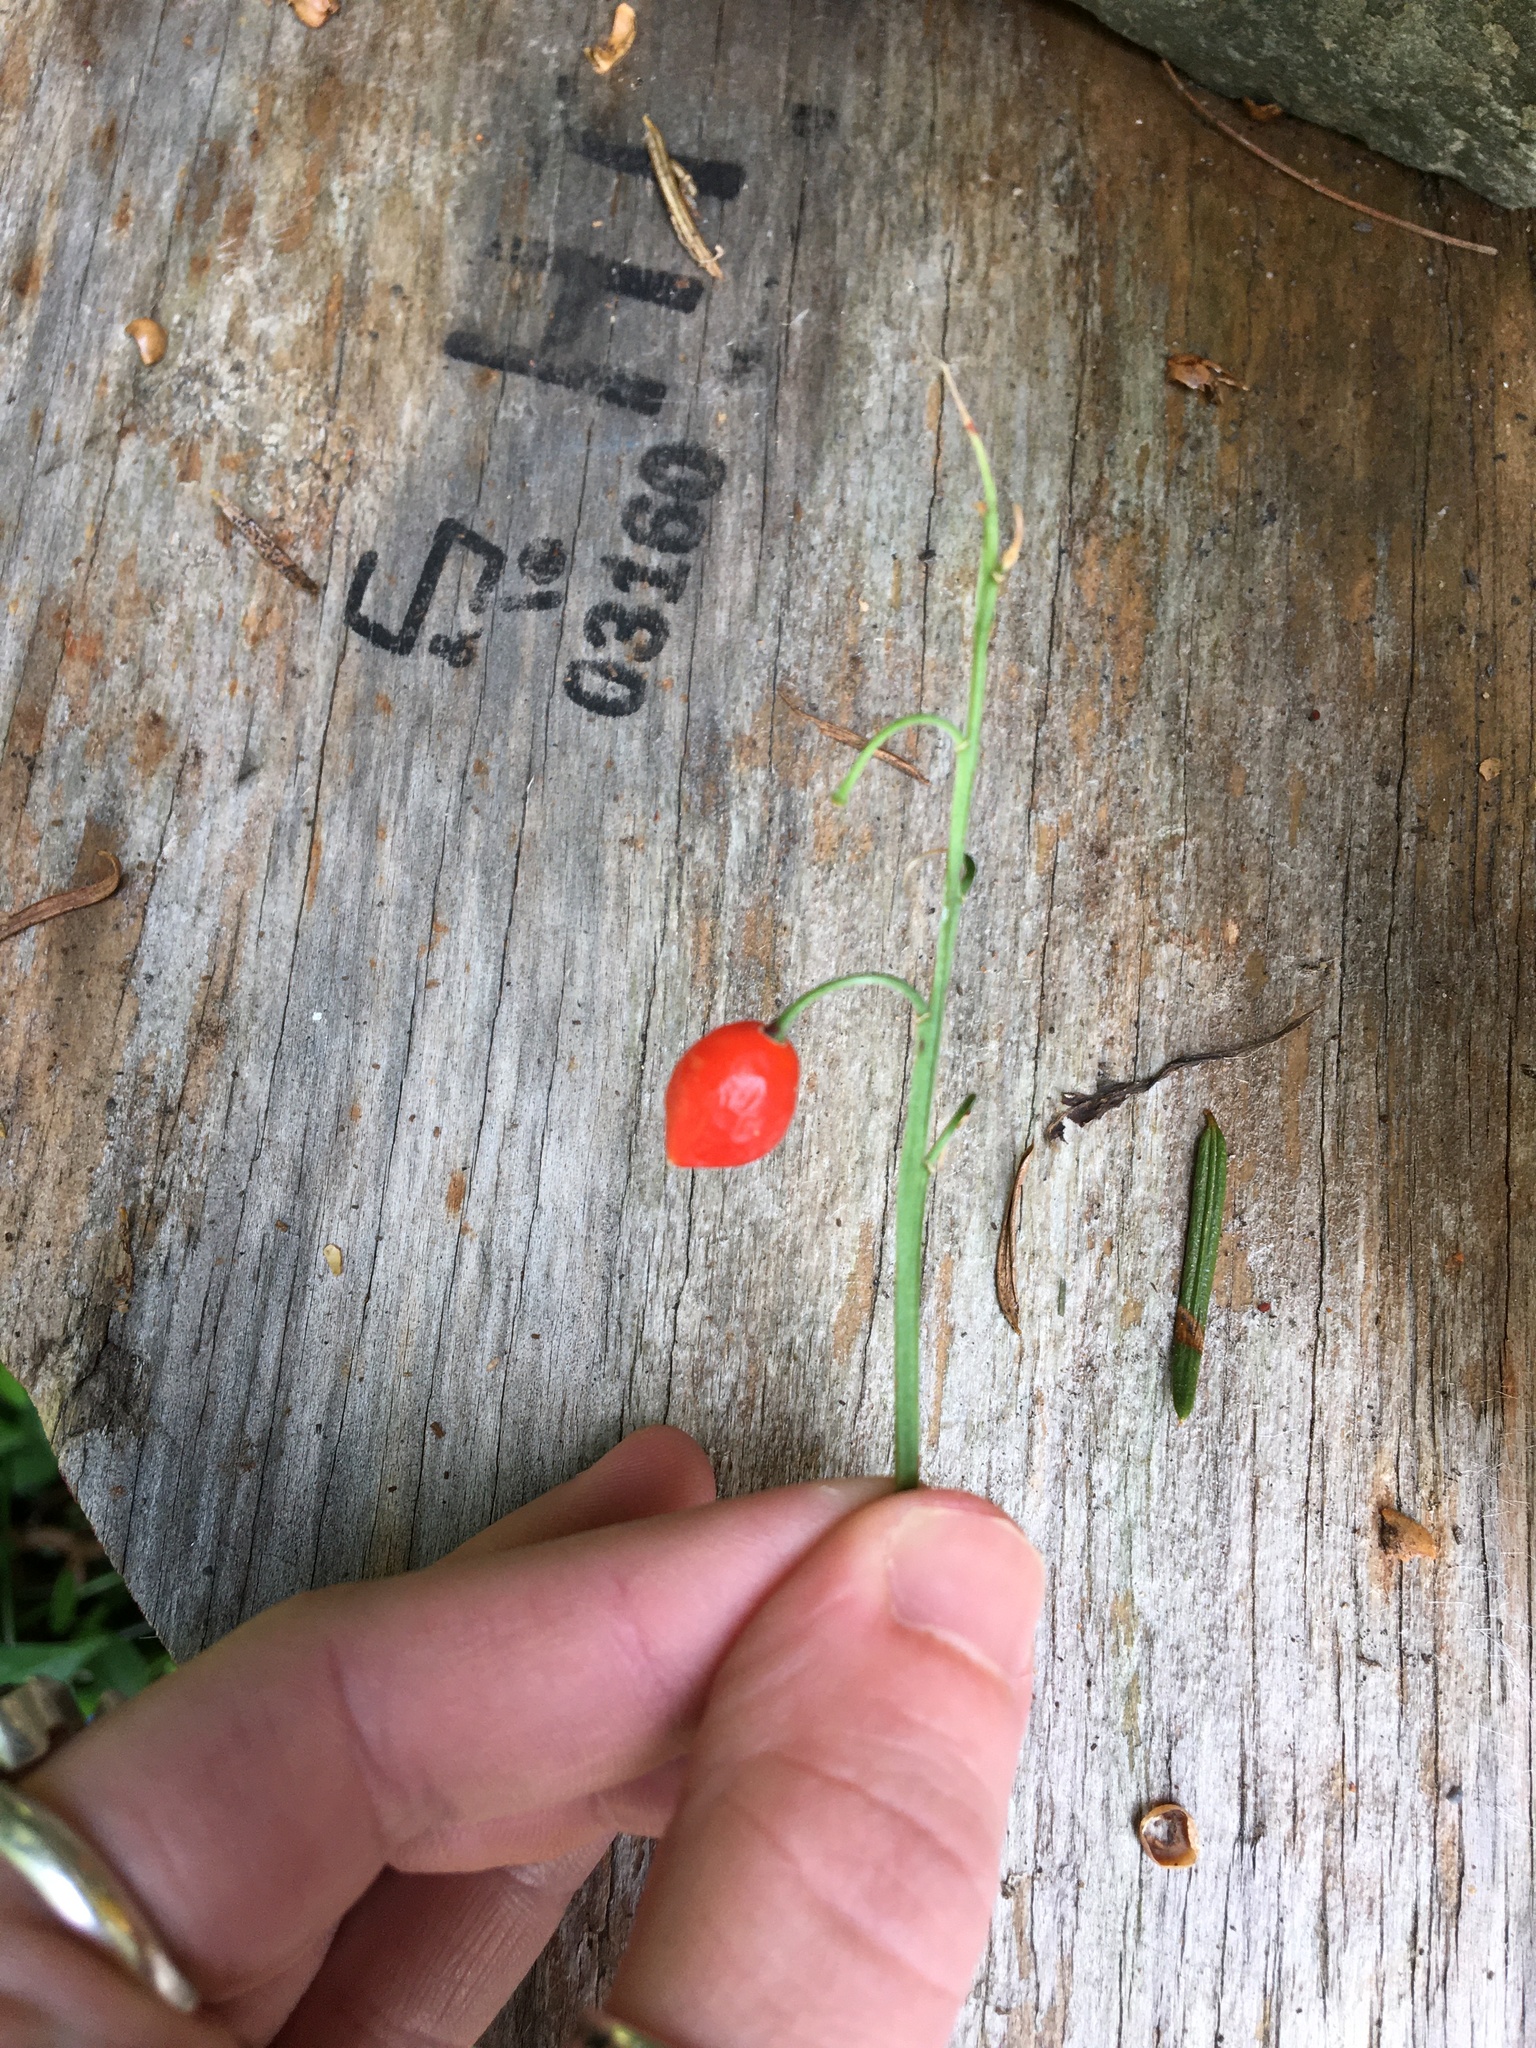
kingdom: Plantae
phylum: Tracheophyta
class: Liliopsida
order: Asparagales
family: Asparagaceae
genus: Convallaria
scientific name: Convallaria majalis
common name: Lily-of-the-valley
